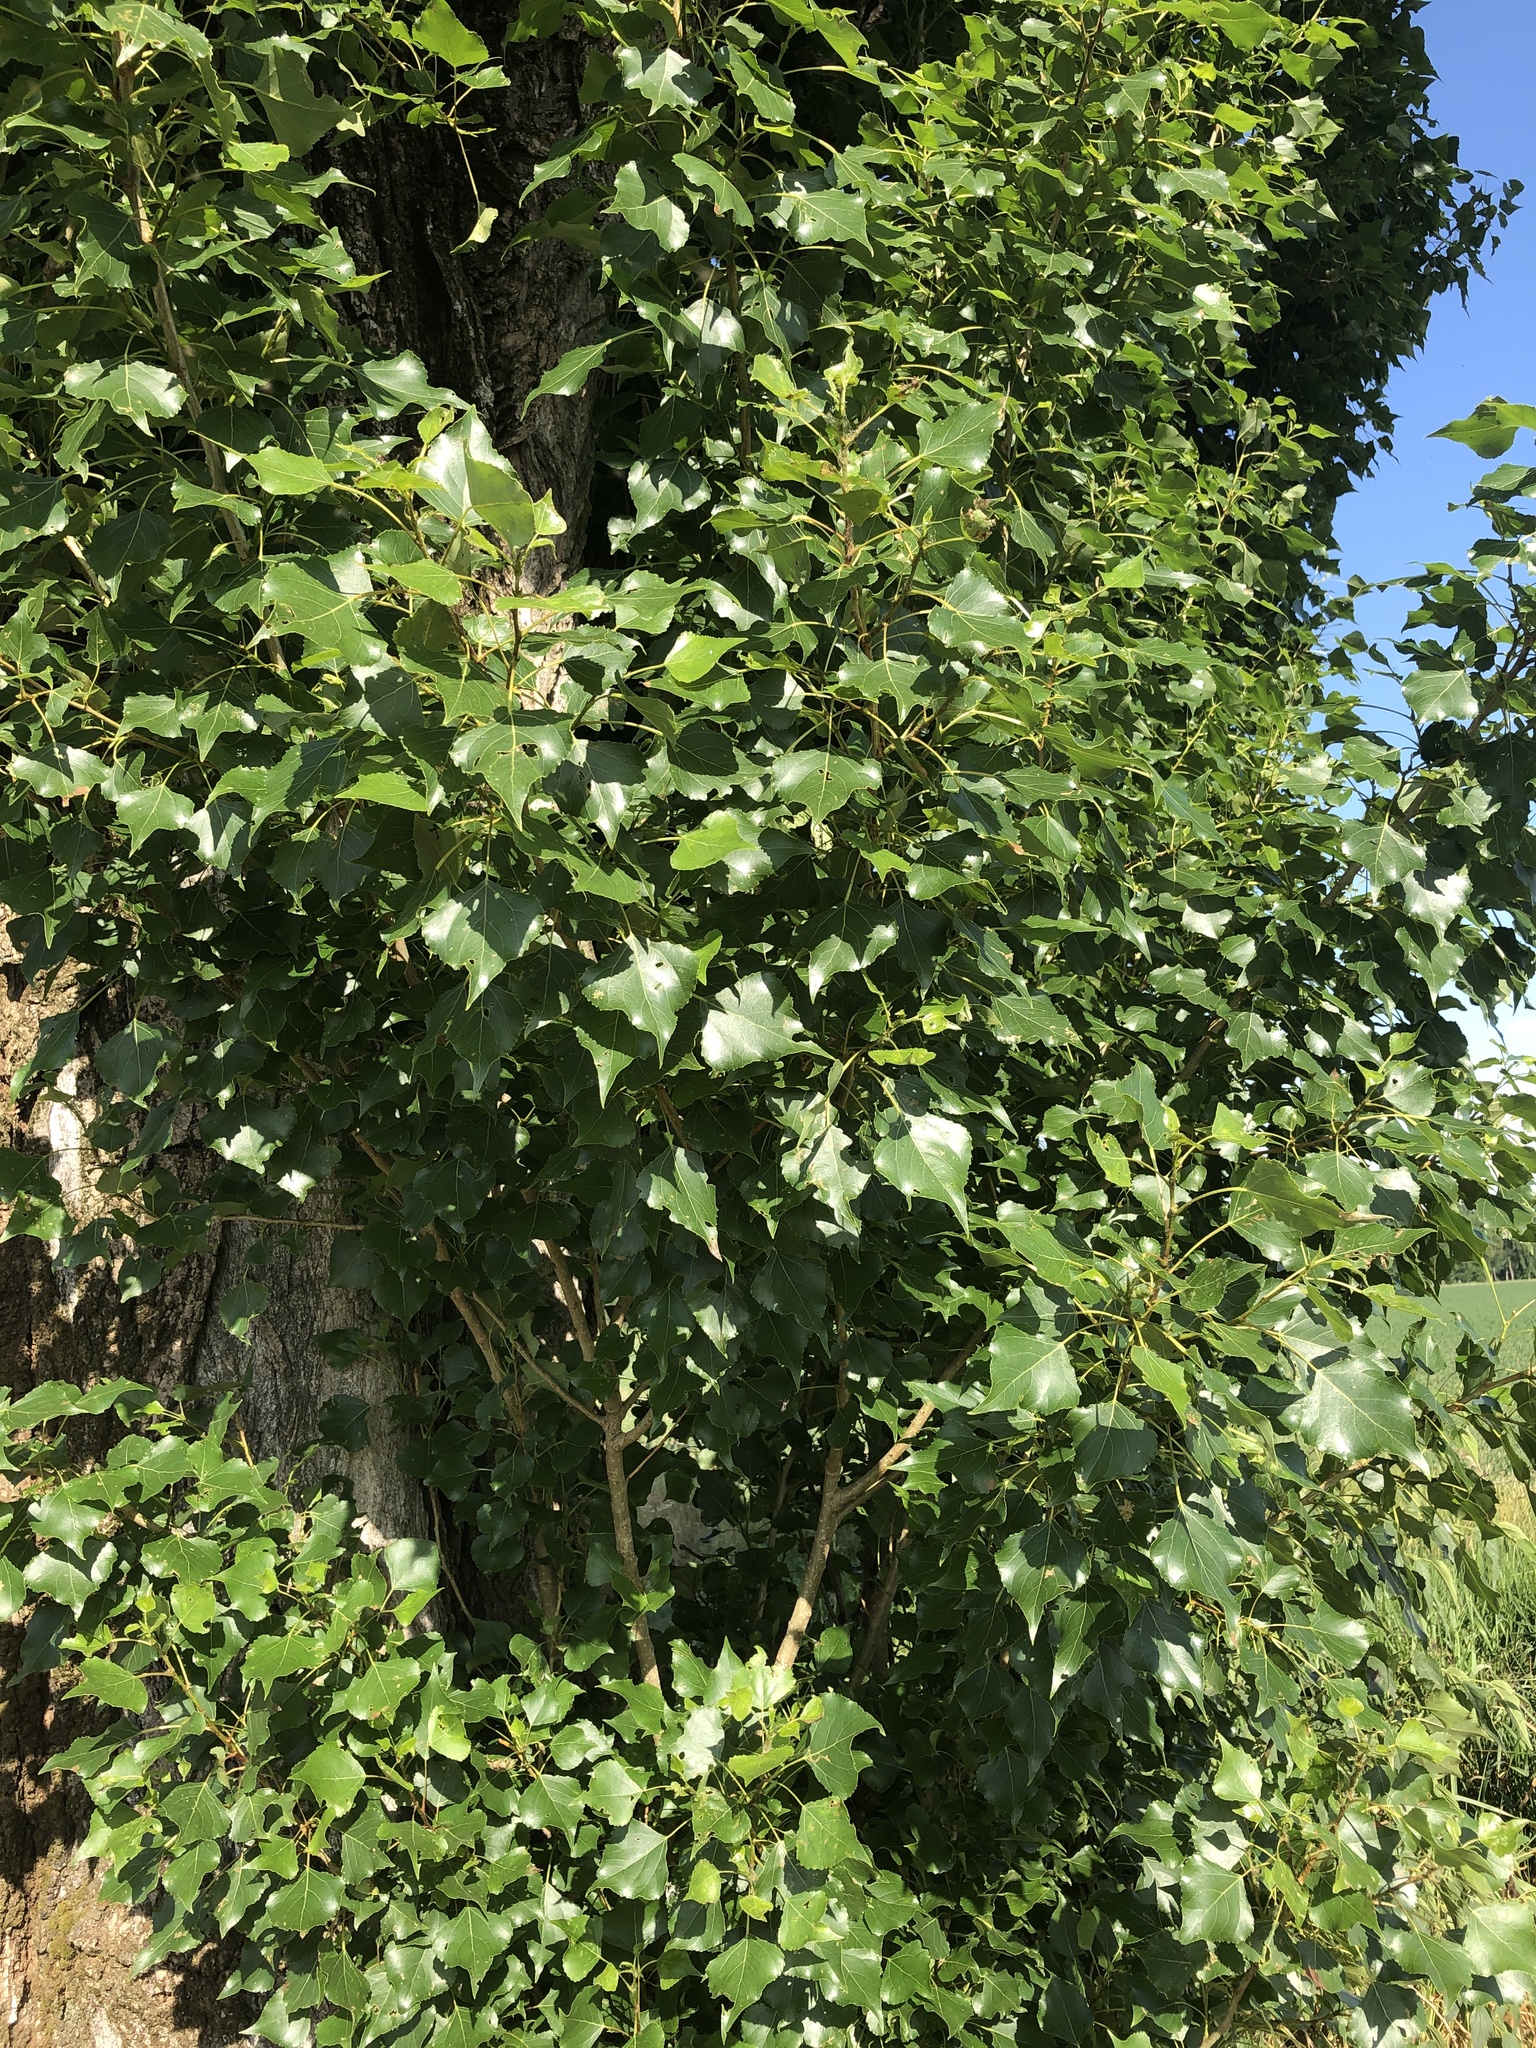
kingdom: Plantae
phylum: Tracheophyta
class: Magnoliopsida
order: Malpighiales
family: Salicaceae
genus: Populus
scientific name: Populus nigra
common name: Black poplar
